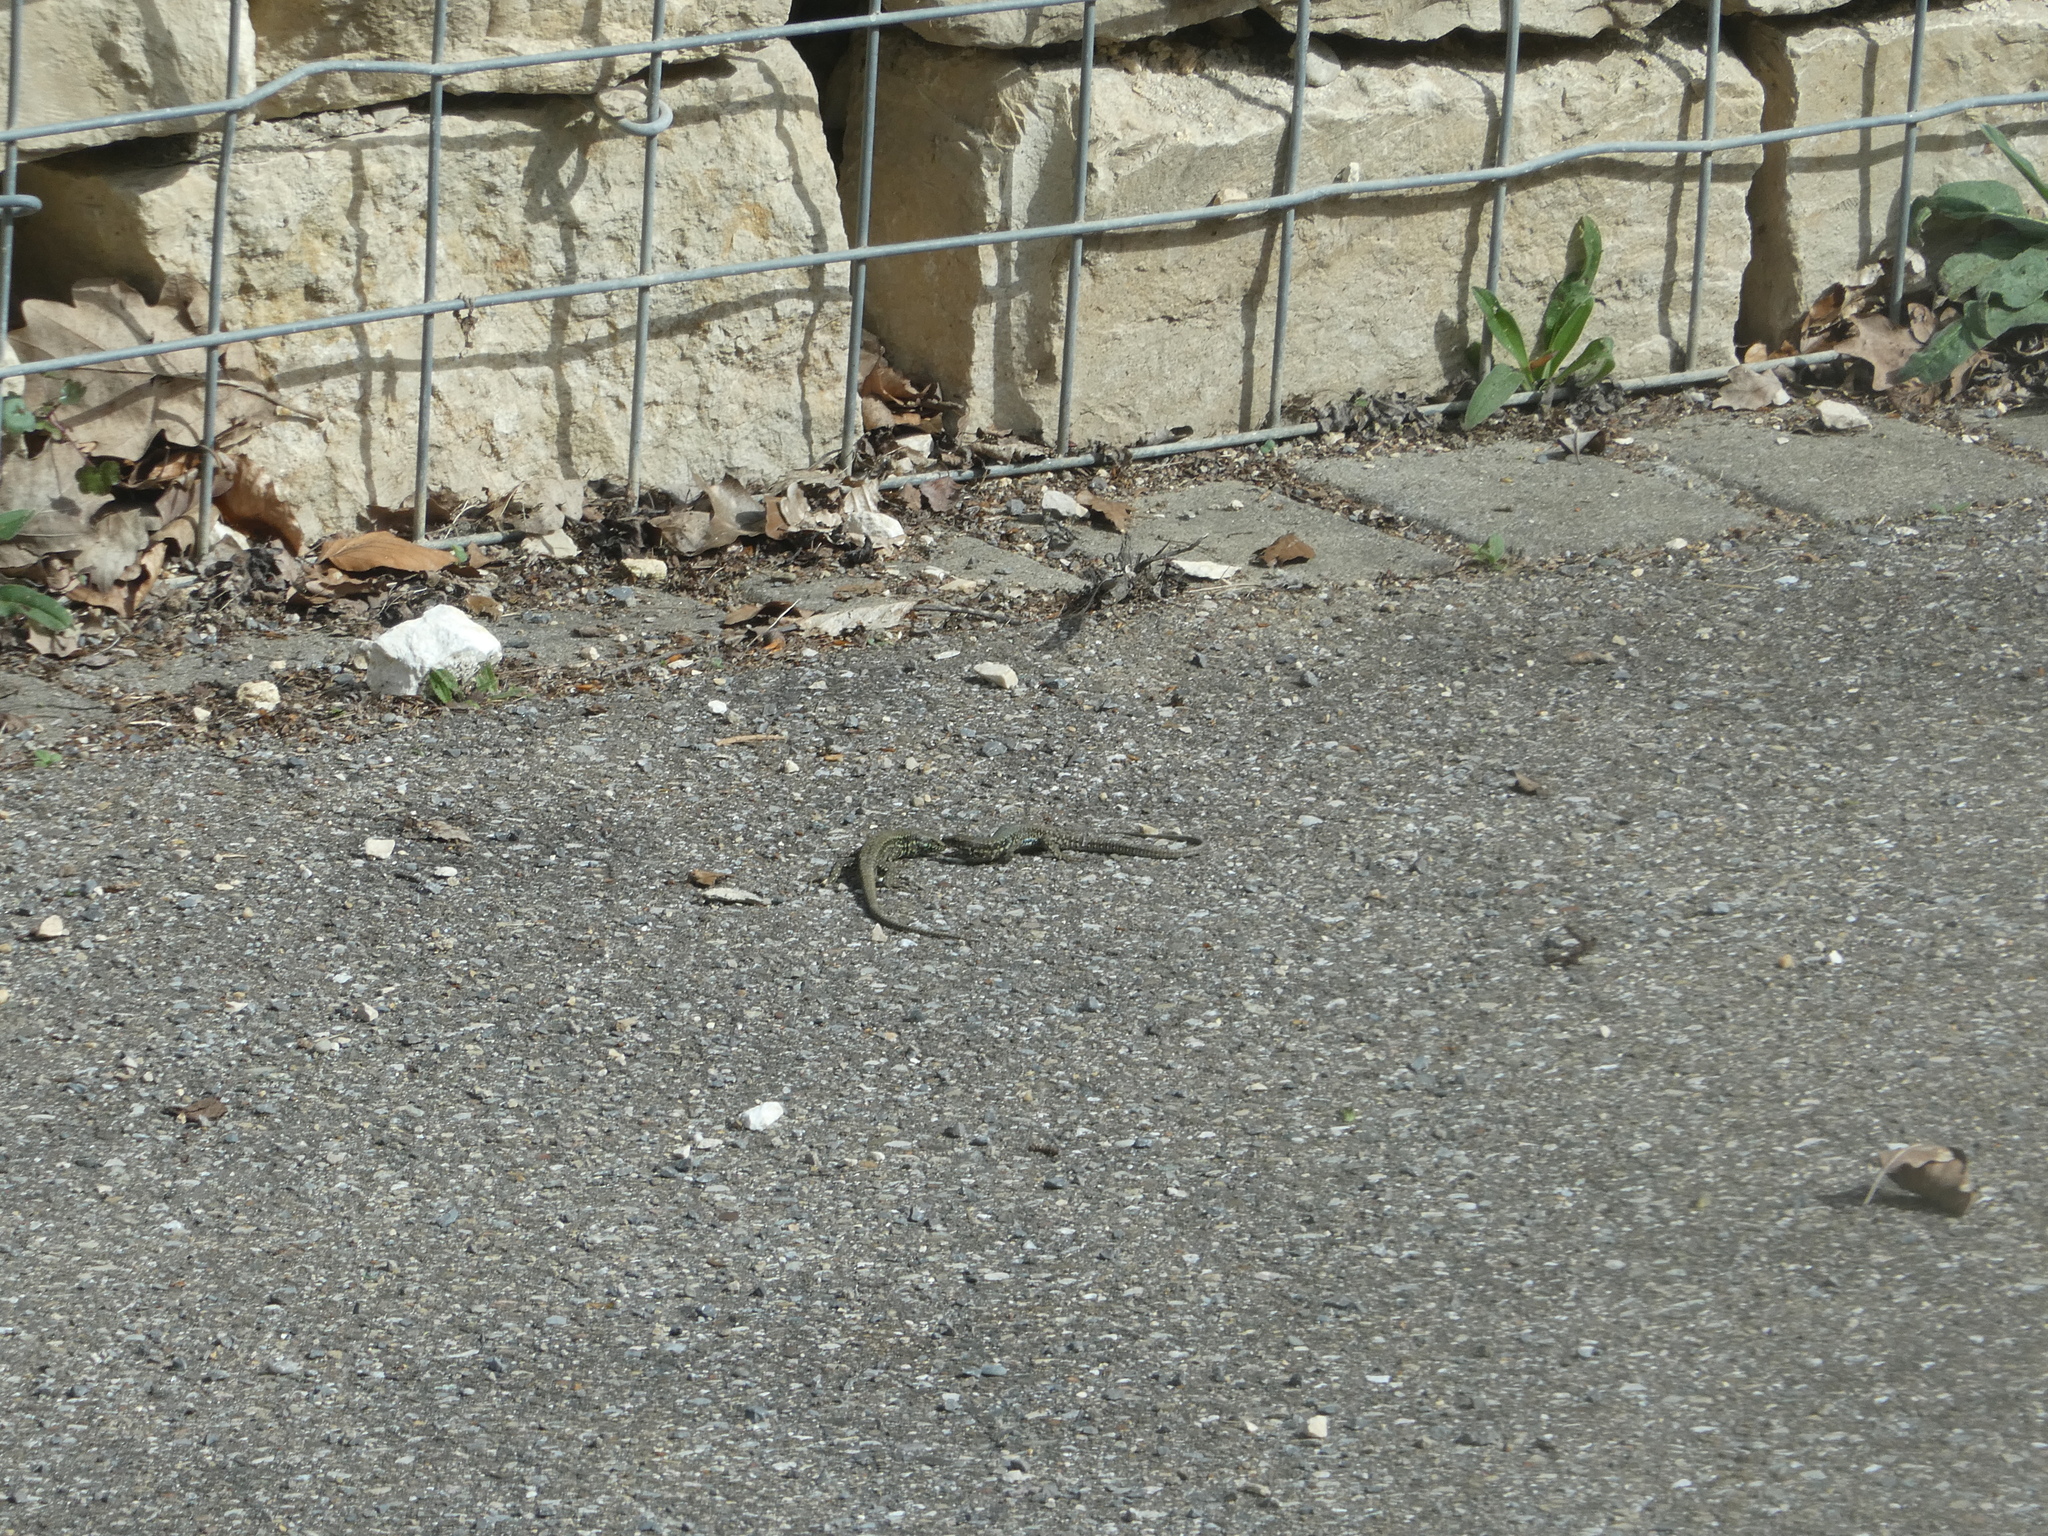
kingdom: Animalia
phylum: Chordata
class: Squamata
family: Lacertidae
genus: Podarcis
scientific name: Podarcis muralis
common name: Common wall lizard
